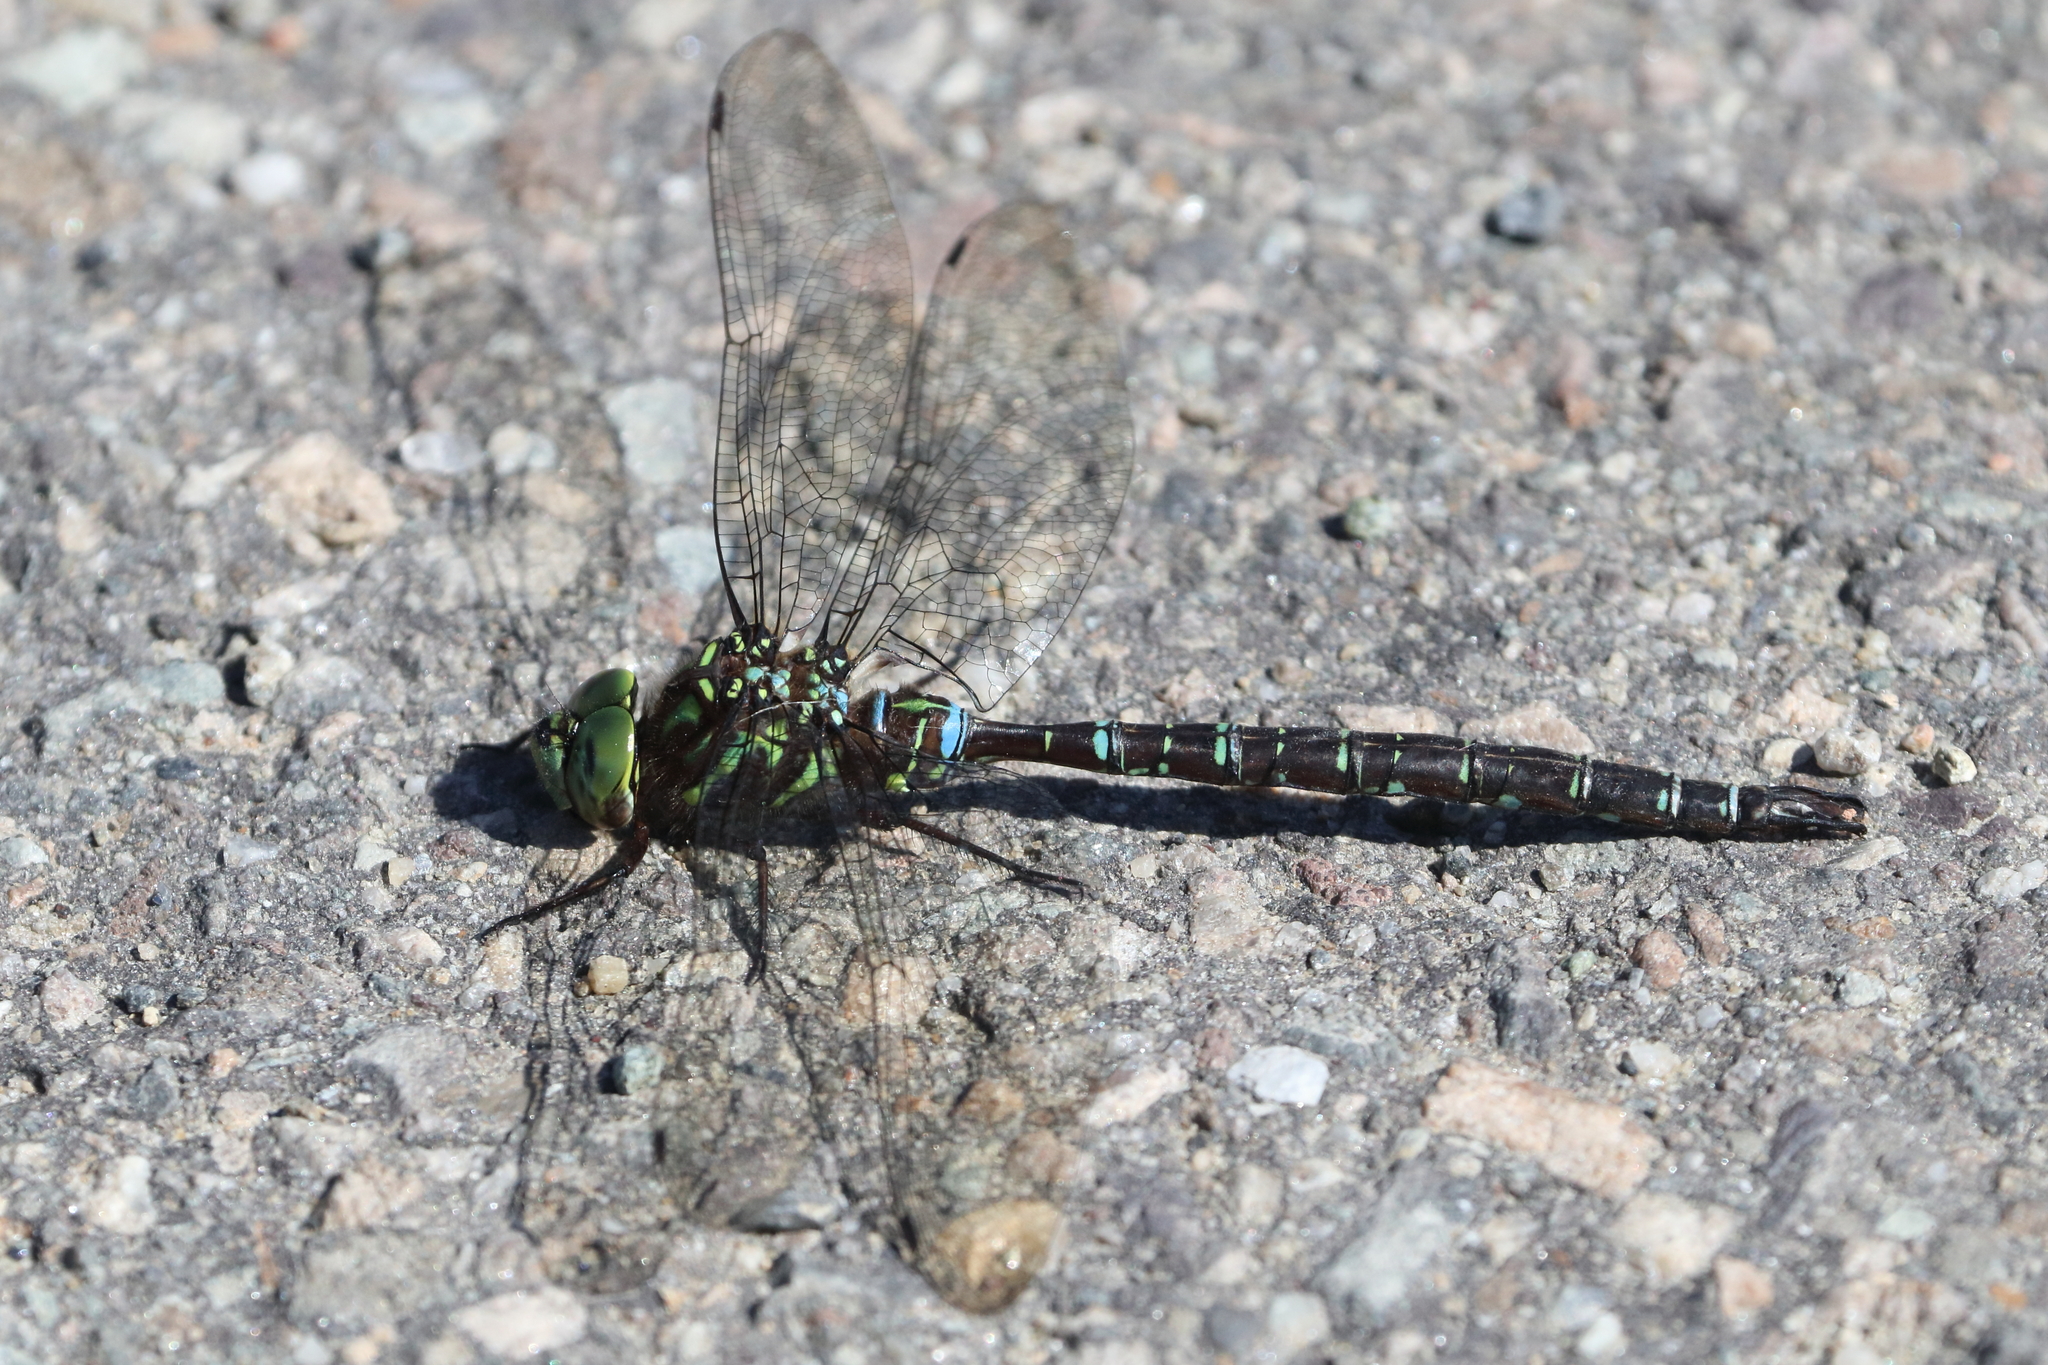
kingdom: Animalia
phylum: Arthropoda
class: Insecta
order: Odonata
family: Aeshnidae
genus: Aeshna
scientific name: Aeshna umbrosa
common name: Shadow darner
